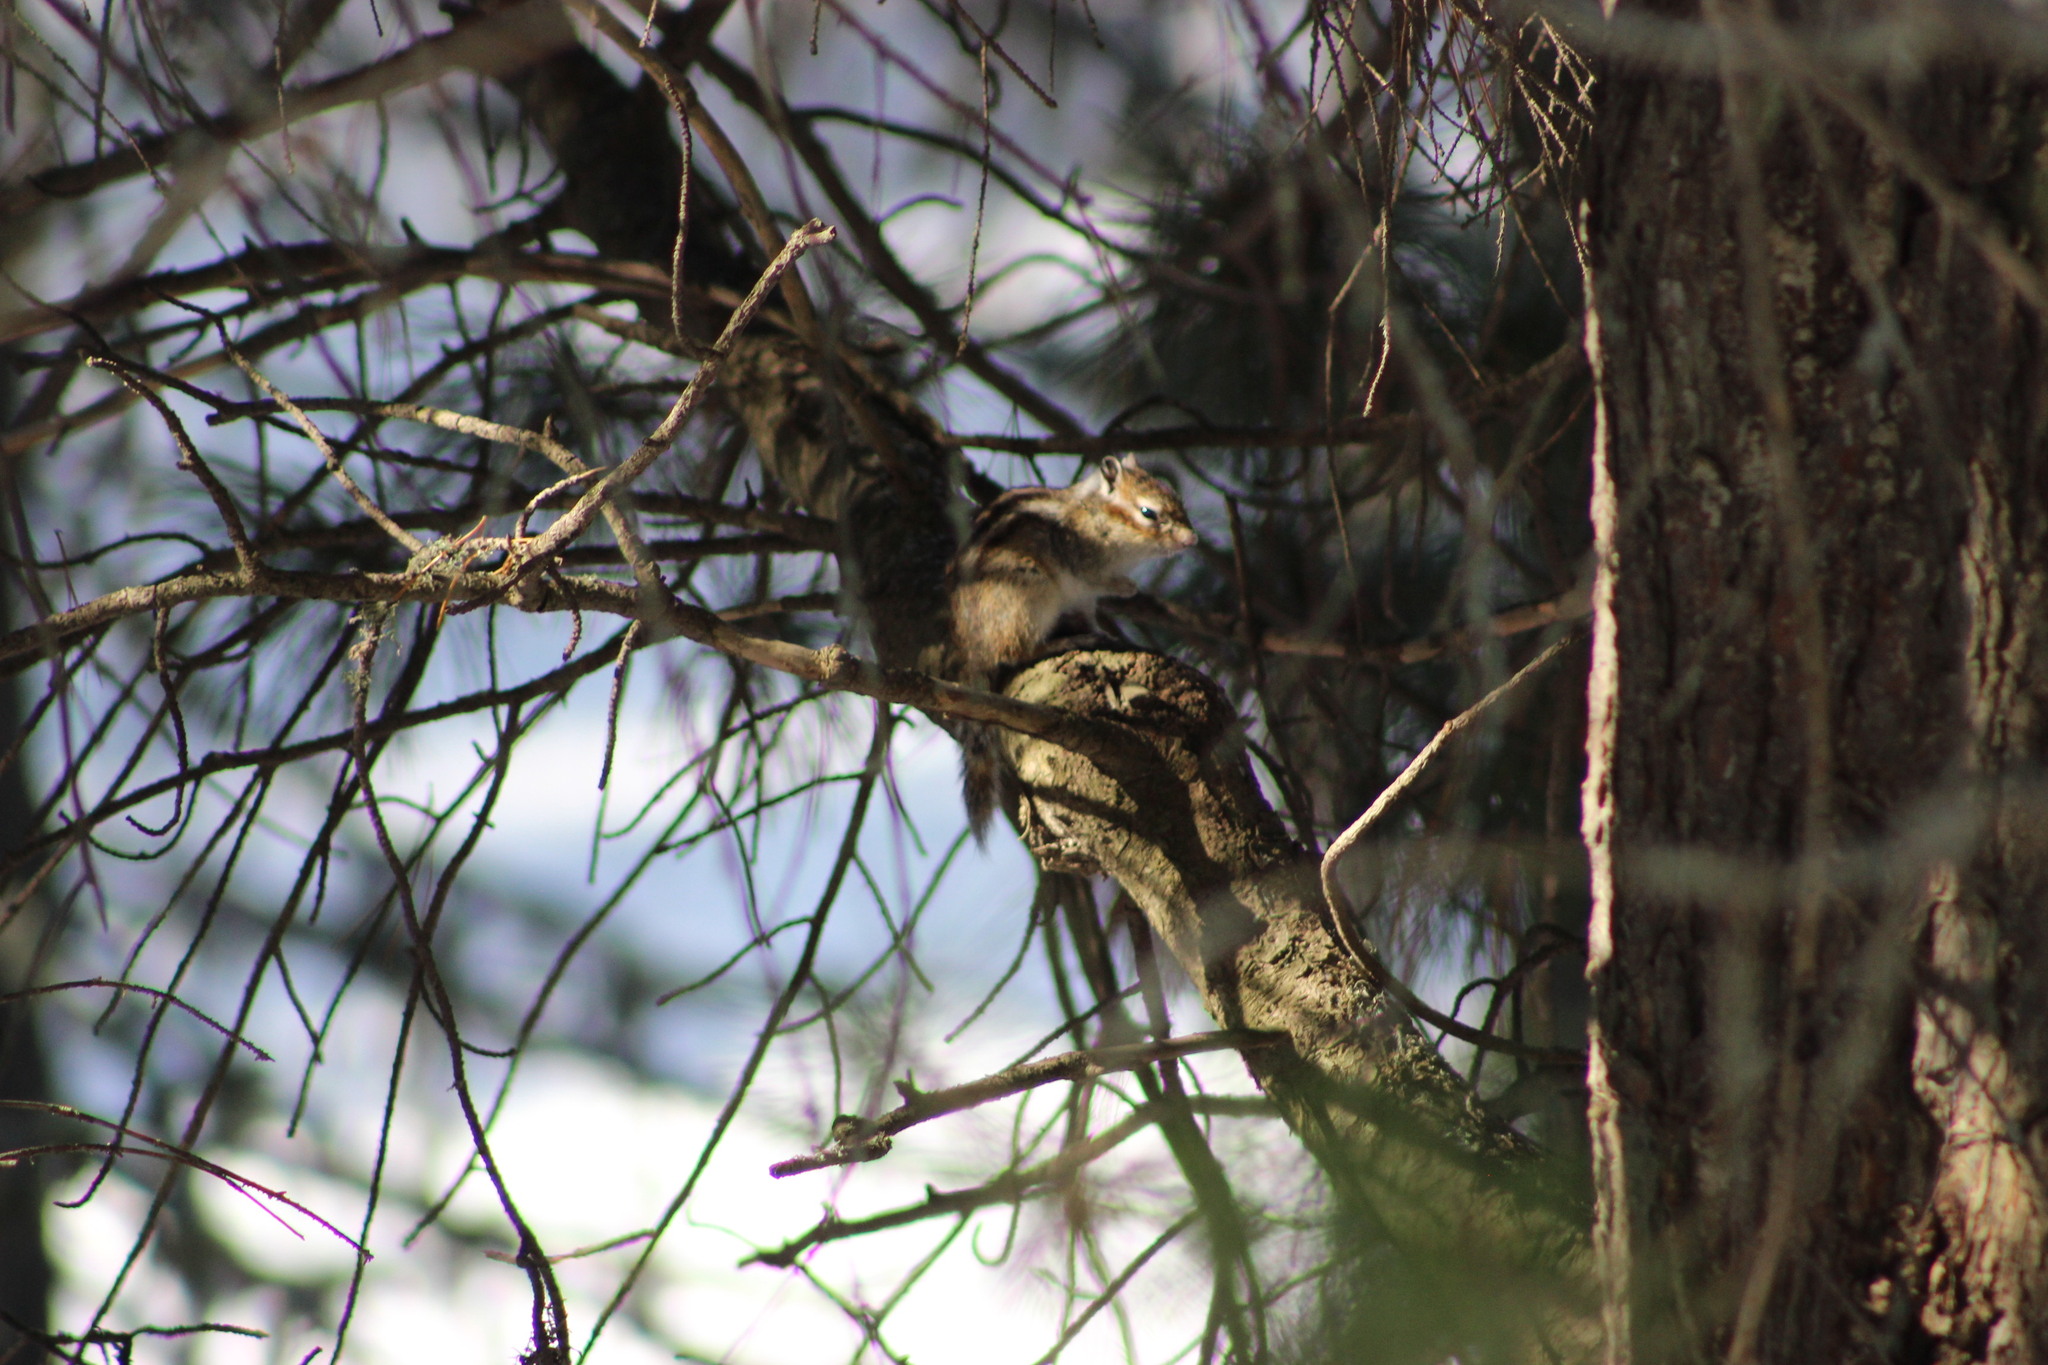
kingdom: Animalia
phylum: Chordata
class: Mammalia
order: Rodentia
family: Sciuridae
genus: Tamias
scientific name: Tamias sibiricus
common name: Siberian chipmunk
